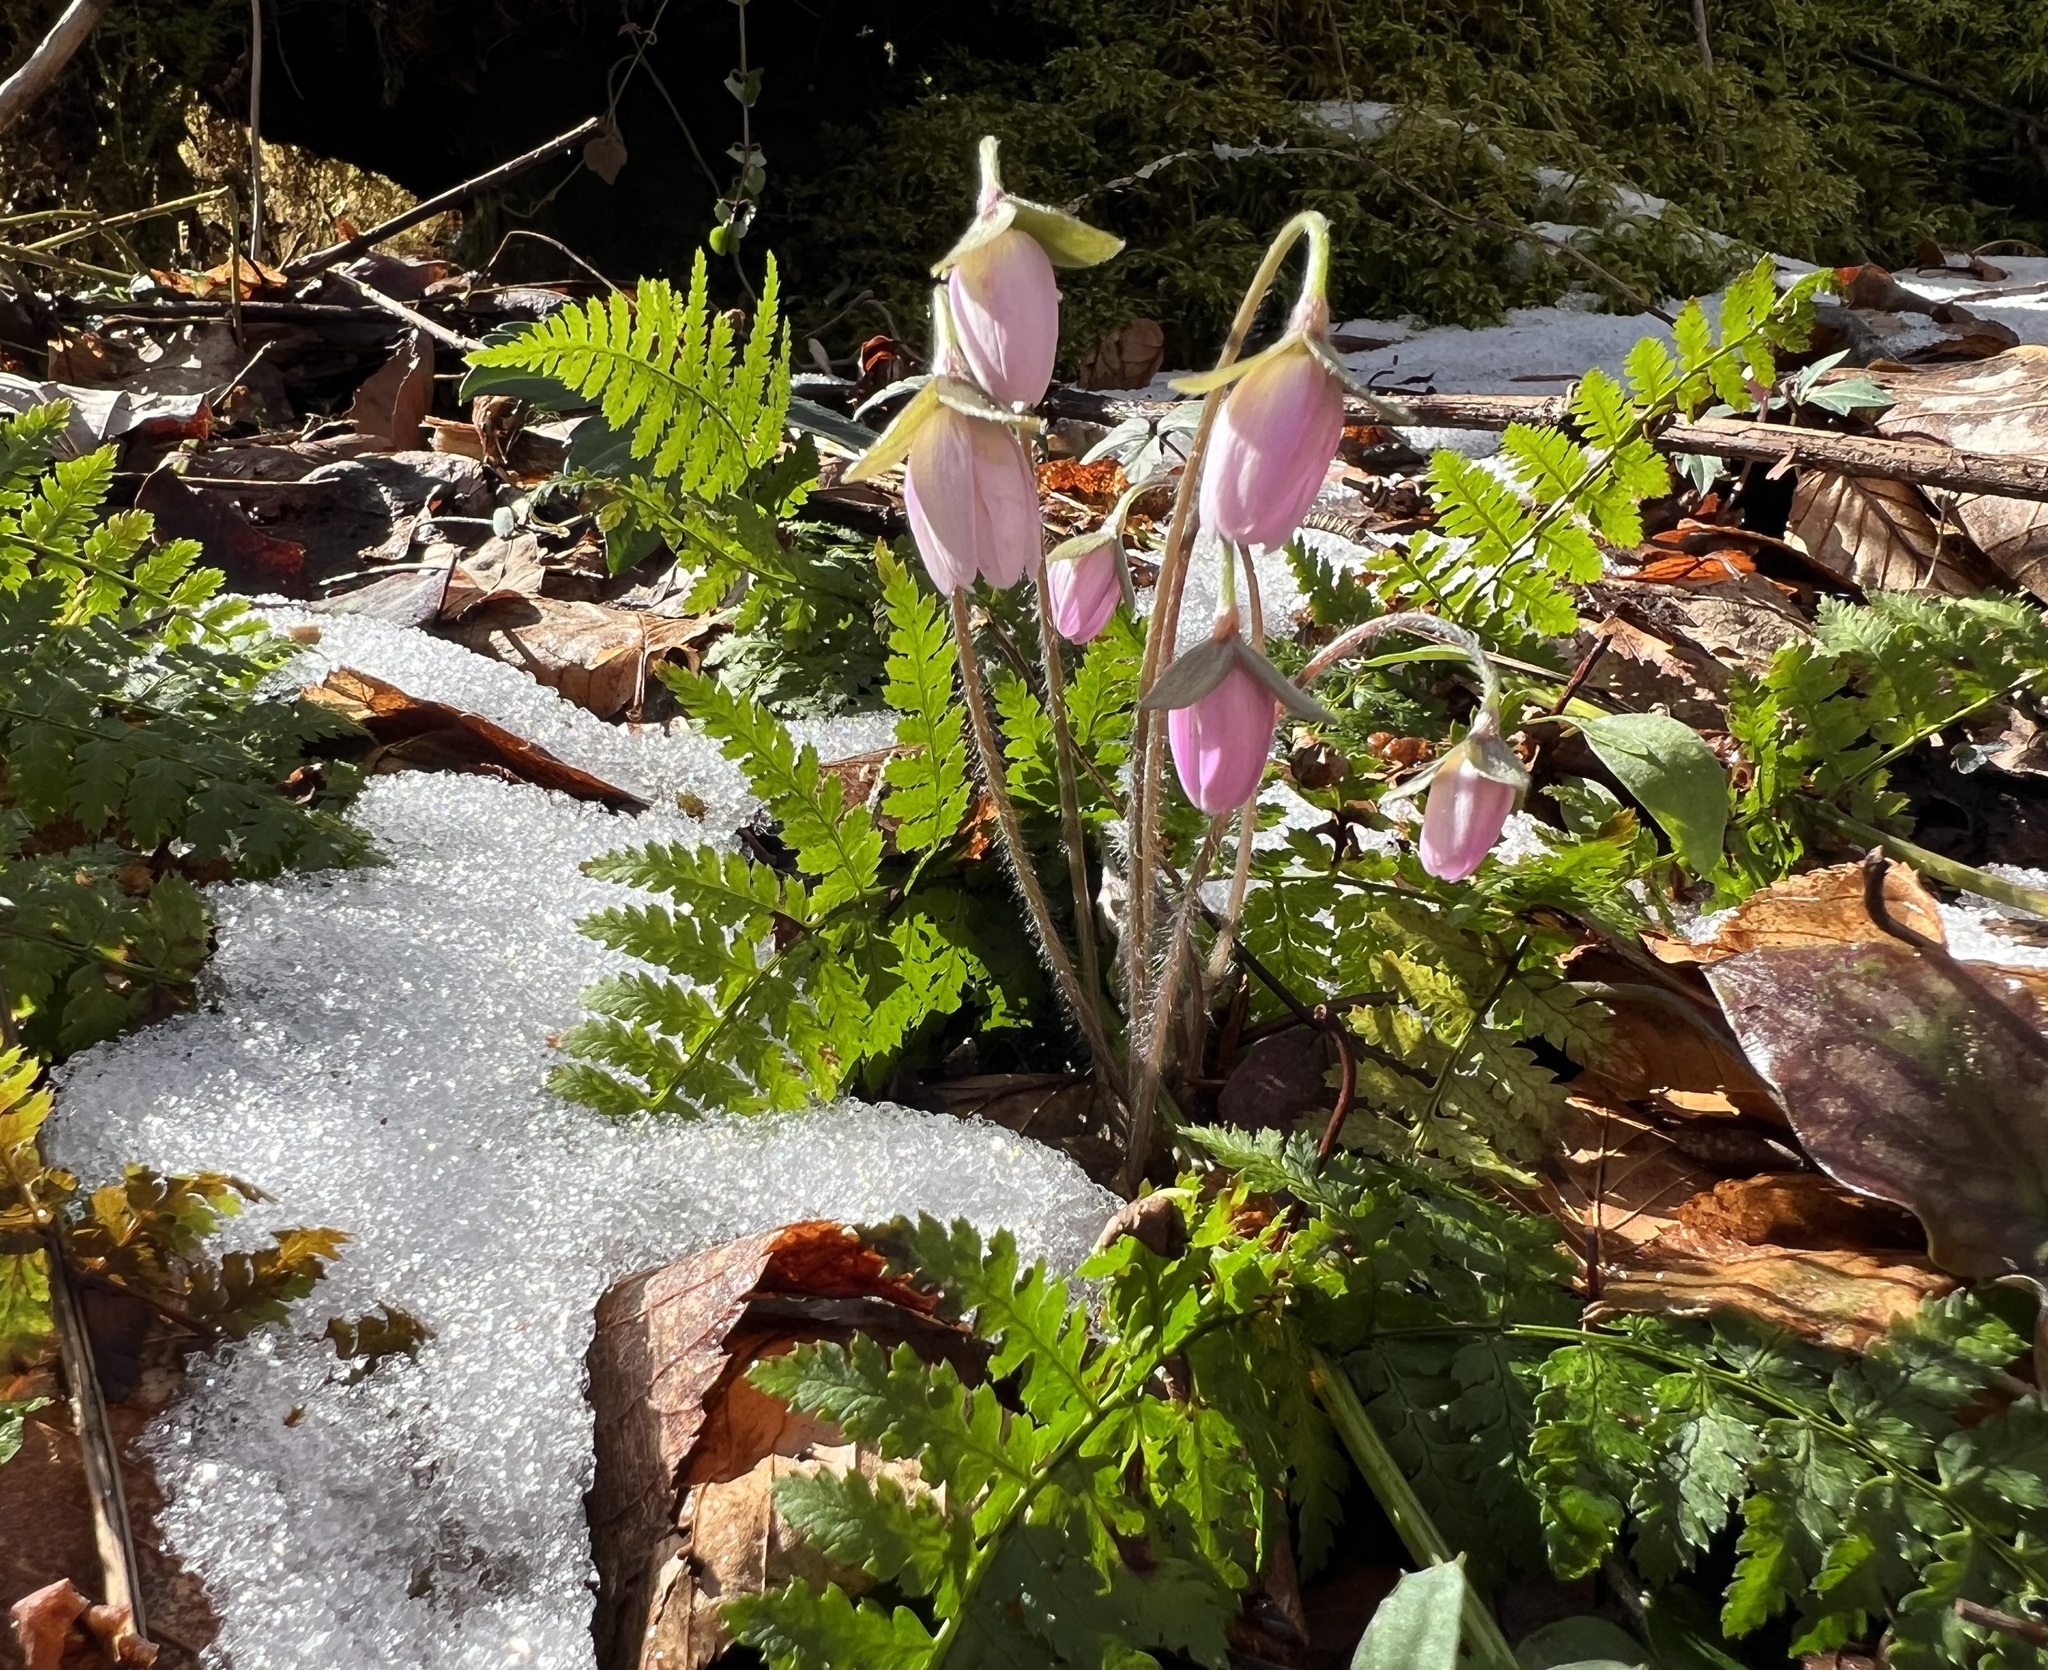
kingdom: Plantae
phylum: Tracheophyta
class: Magnoliopsida
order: Ranunculales
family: Ranunculaceae
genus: Hepatica
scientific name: Hepatica acutiloba
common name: Sharp-lobed hepatica
